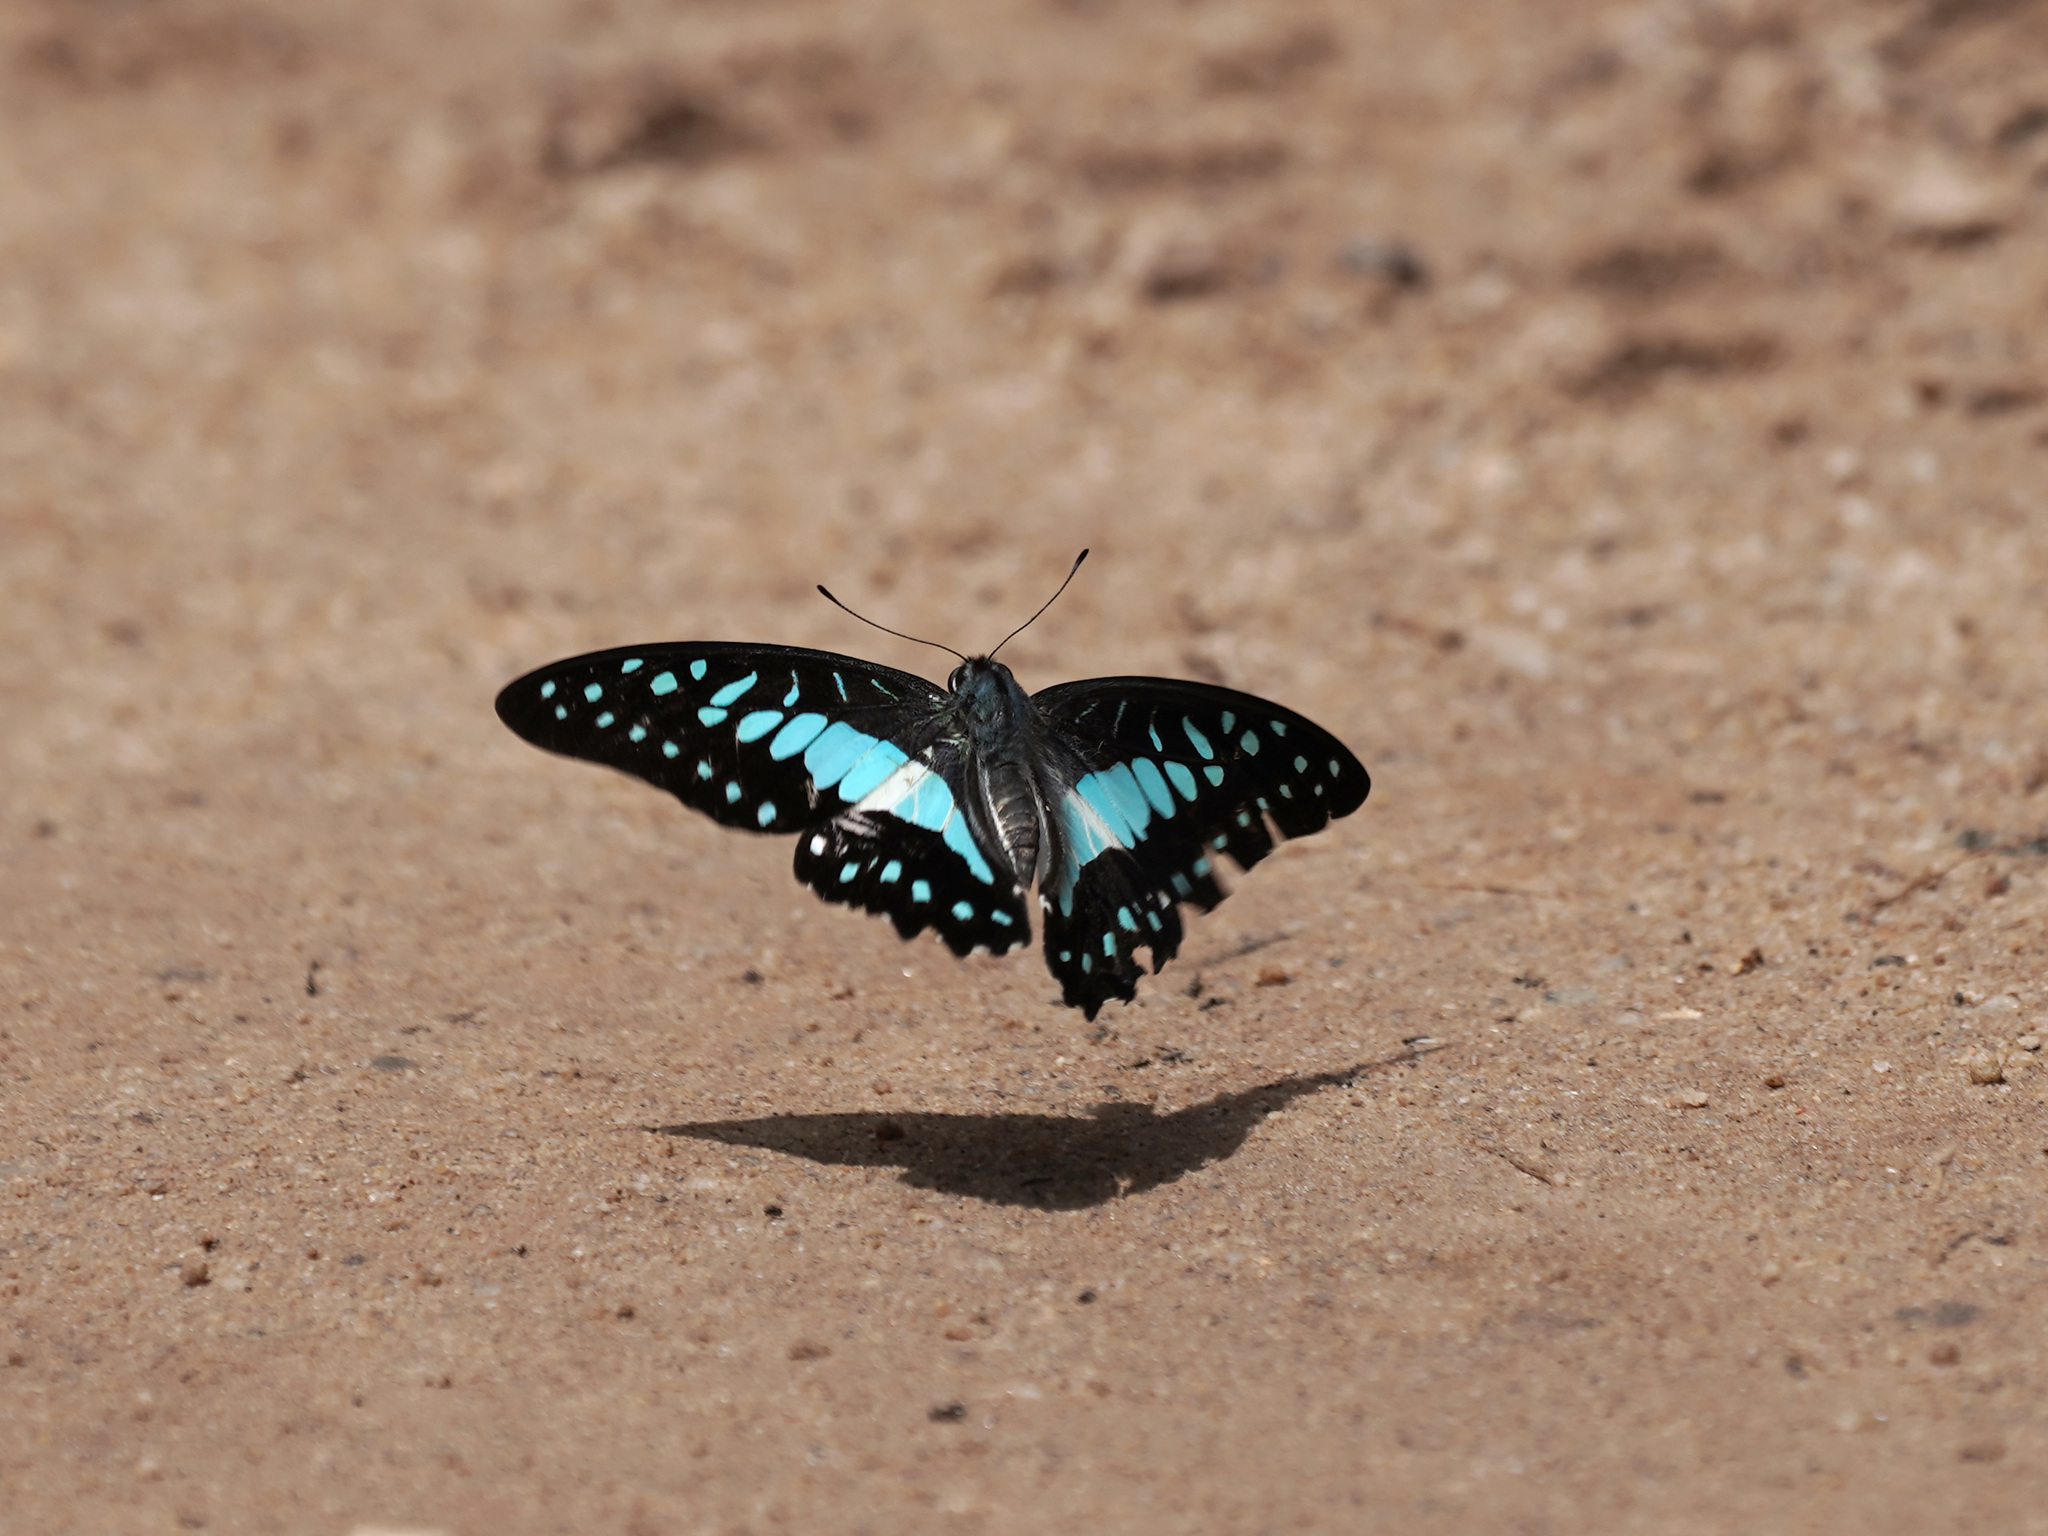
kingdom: Animalia
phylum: Arthropoda
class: Insecta
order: Lepidoptera
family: Papilionidae
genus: Graphium
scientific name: Graphium evemon
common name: Lesser jay
